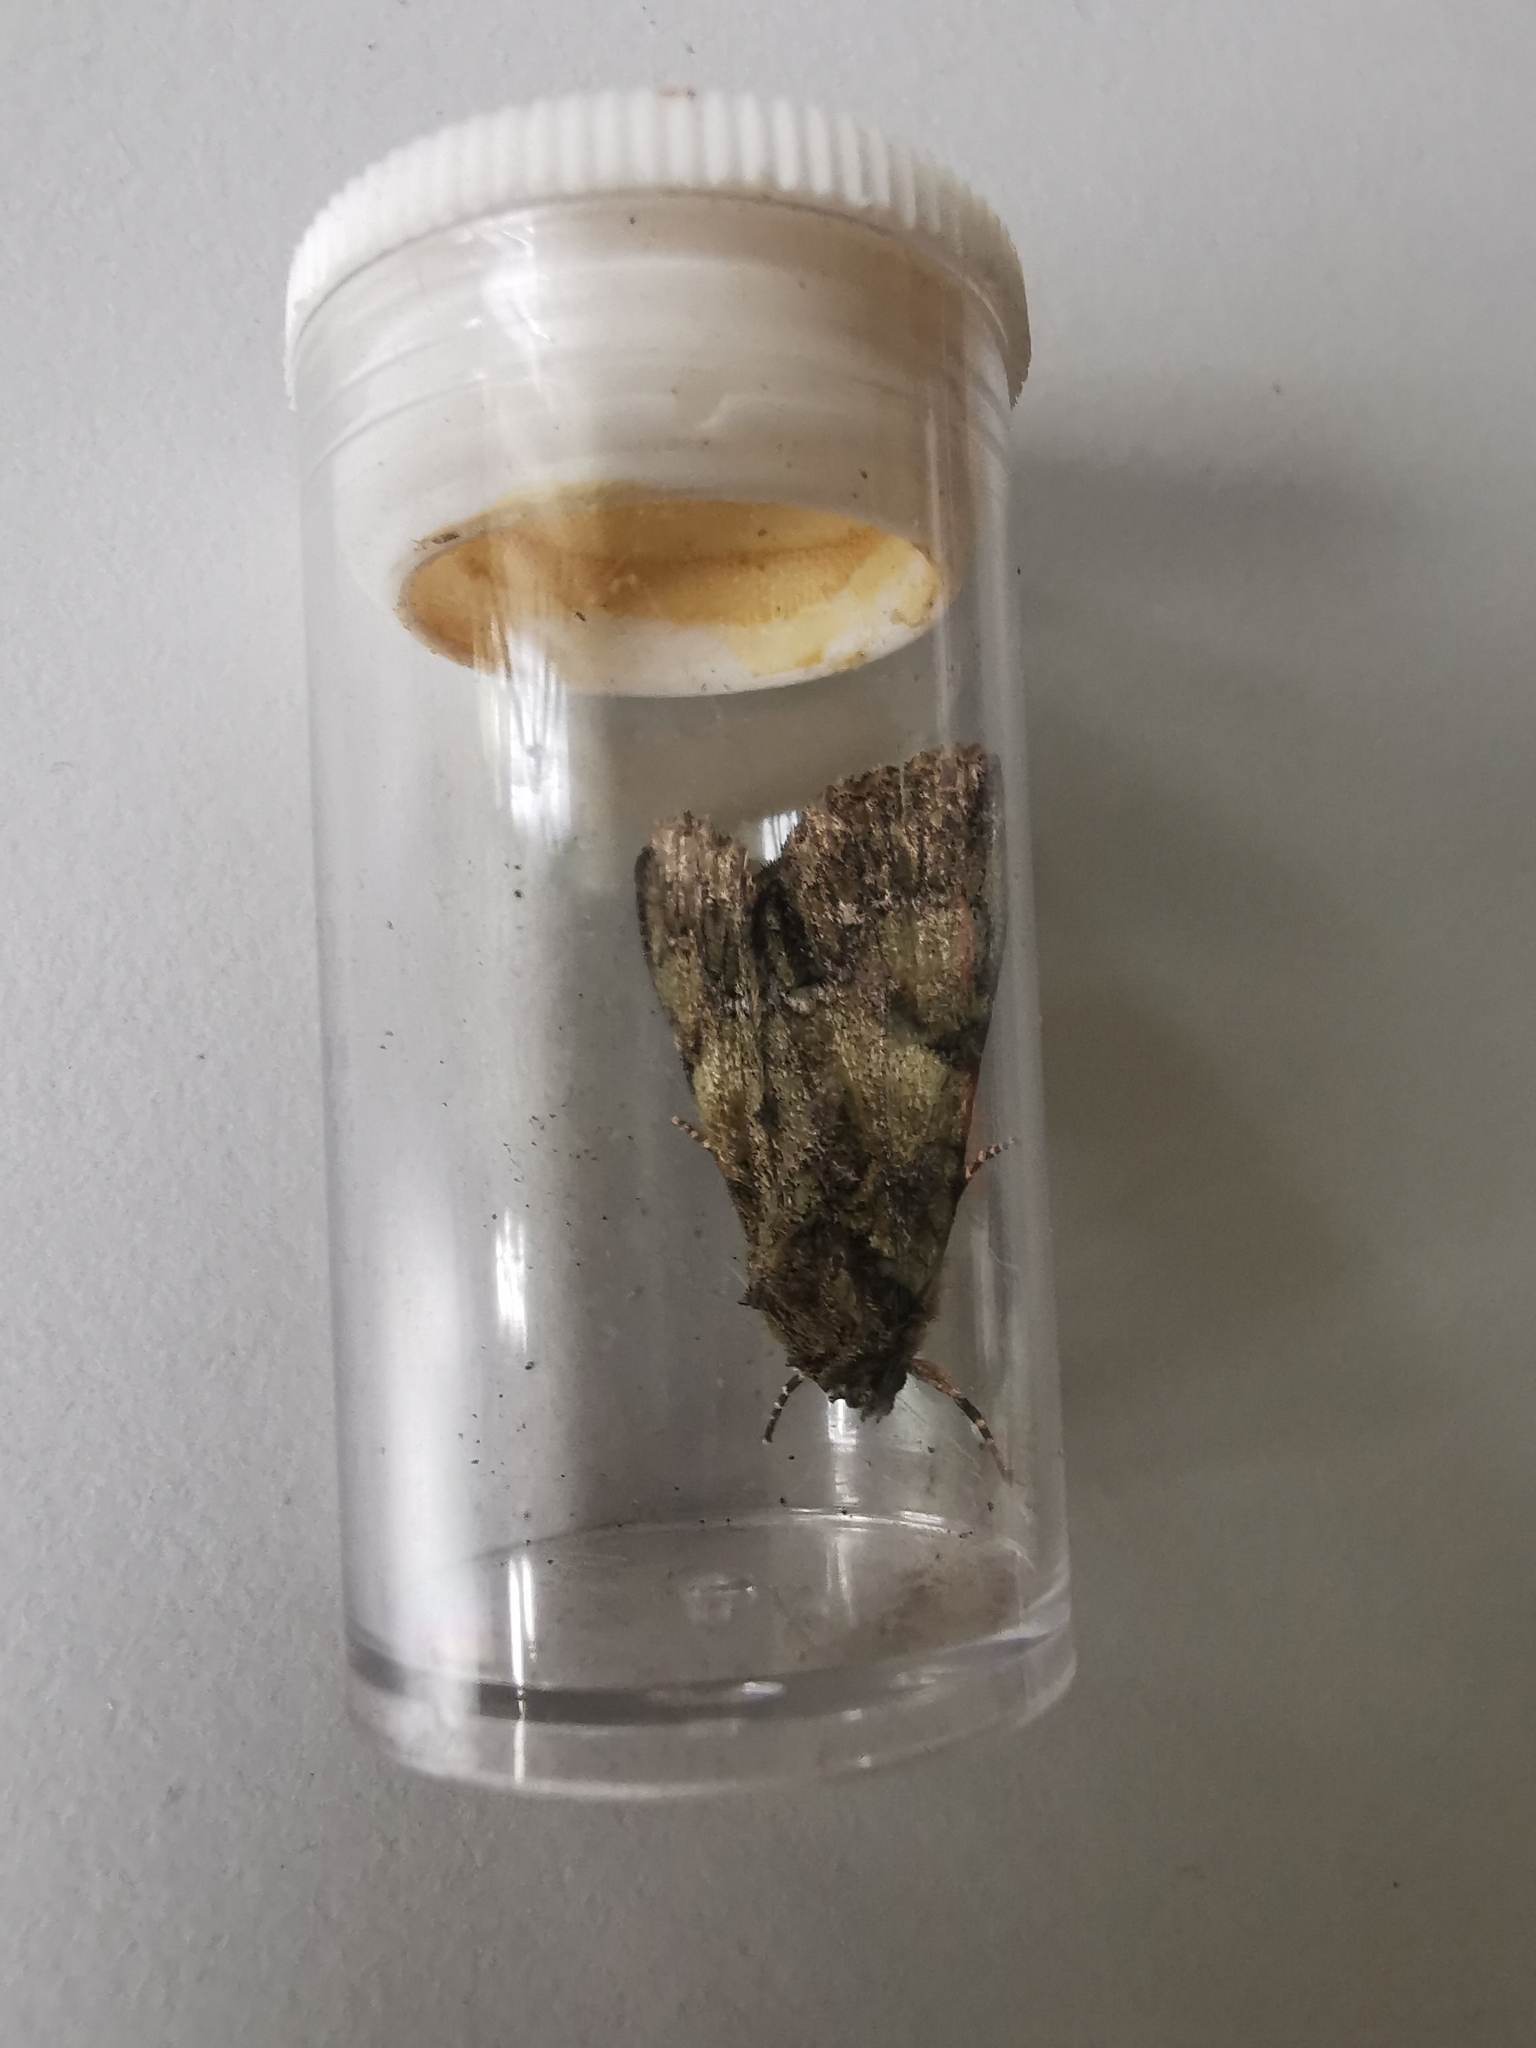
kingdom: Animalia
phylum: Arthropoda
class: Insecta
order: Lepidoptera
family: Noctuidae
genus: Polyphaenis
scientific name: Polyphaenis sericata
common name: Guernsey underwing
